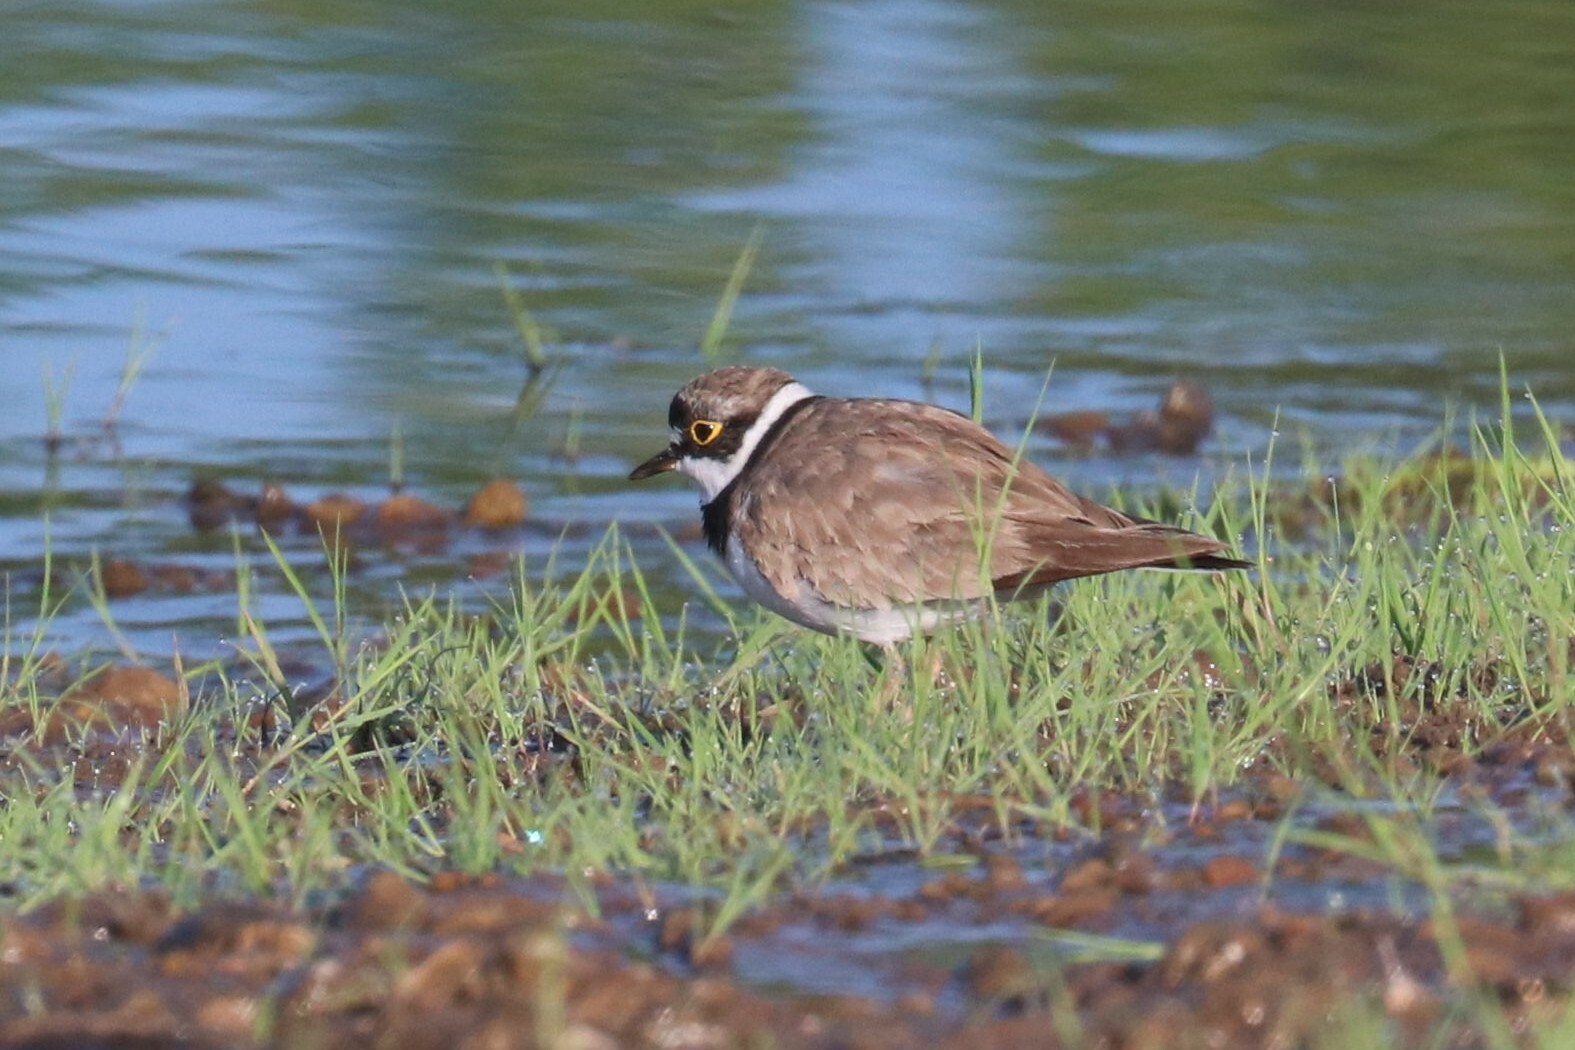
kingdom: Animalia
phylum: Chordata
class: Aves
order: Charadriiformes
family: Charadriidae
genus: Charadrius
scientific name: Charadrius dubius
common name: Little ringed plover
